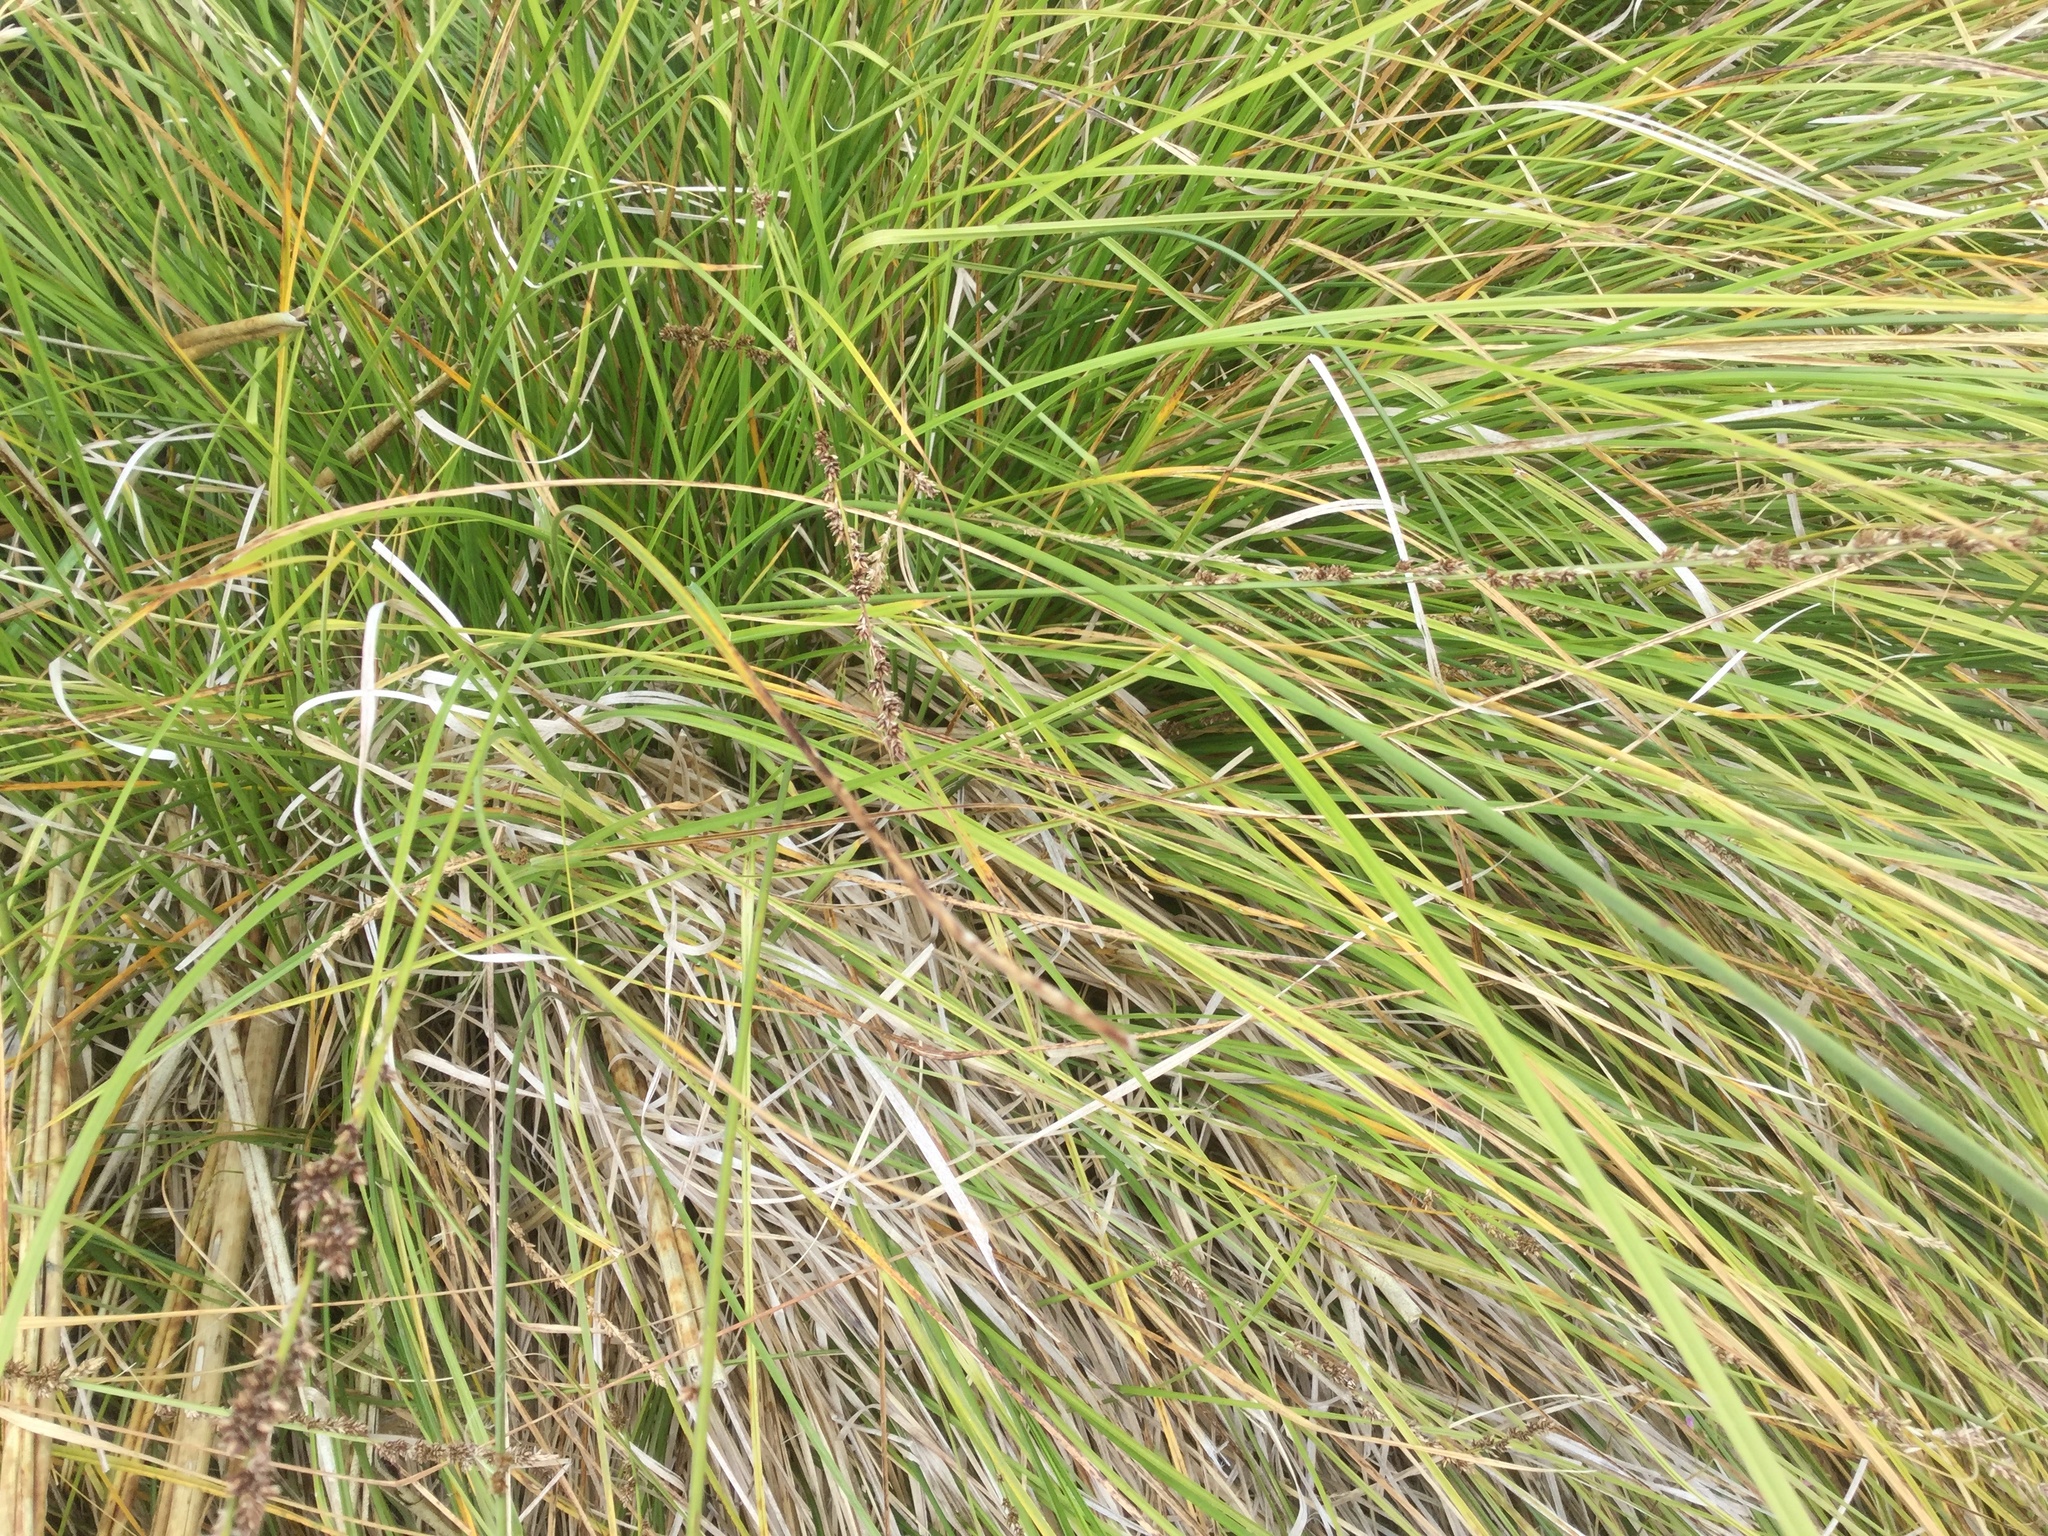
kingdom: Plantae
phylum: Tracheophyta
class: Liliopsida
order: Poales
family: Cyperaceae
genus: Carex
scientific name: Carex virgata
